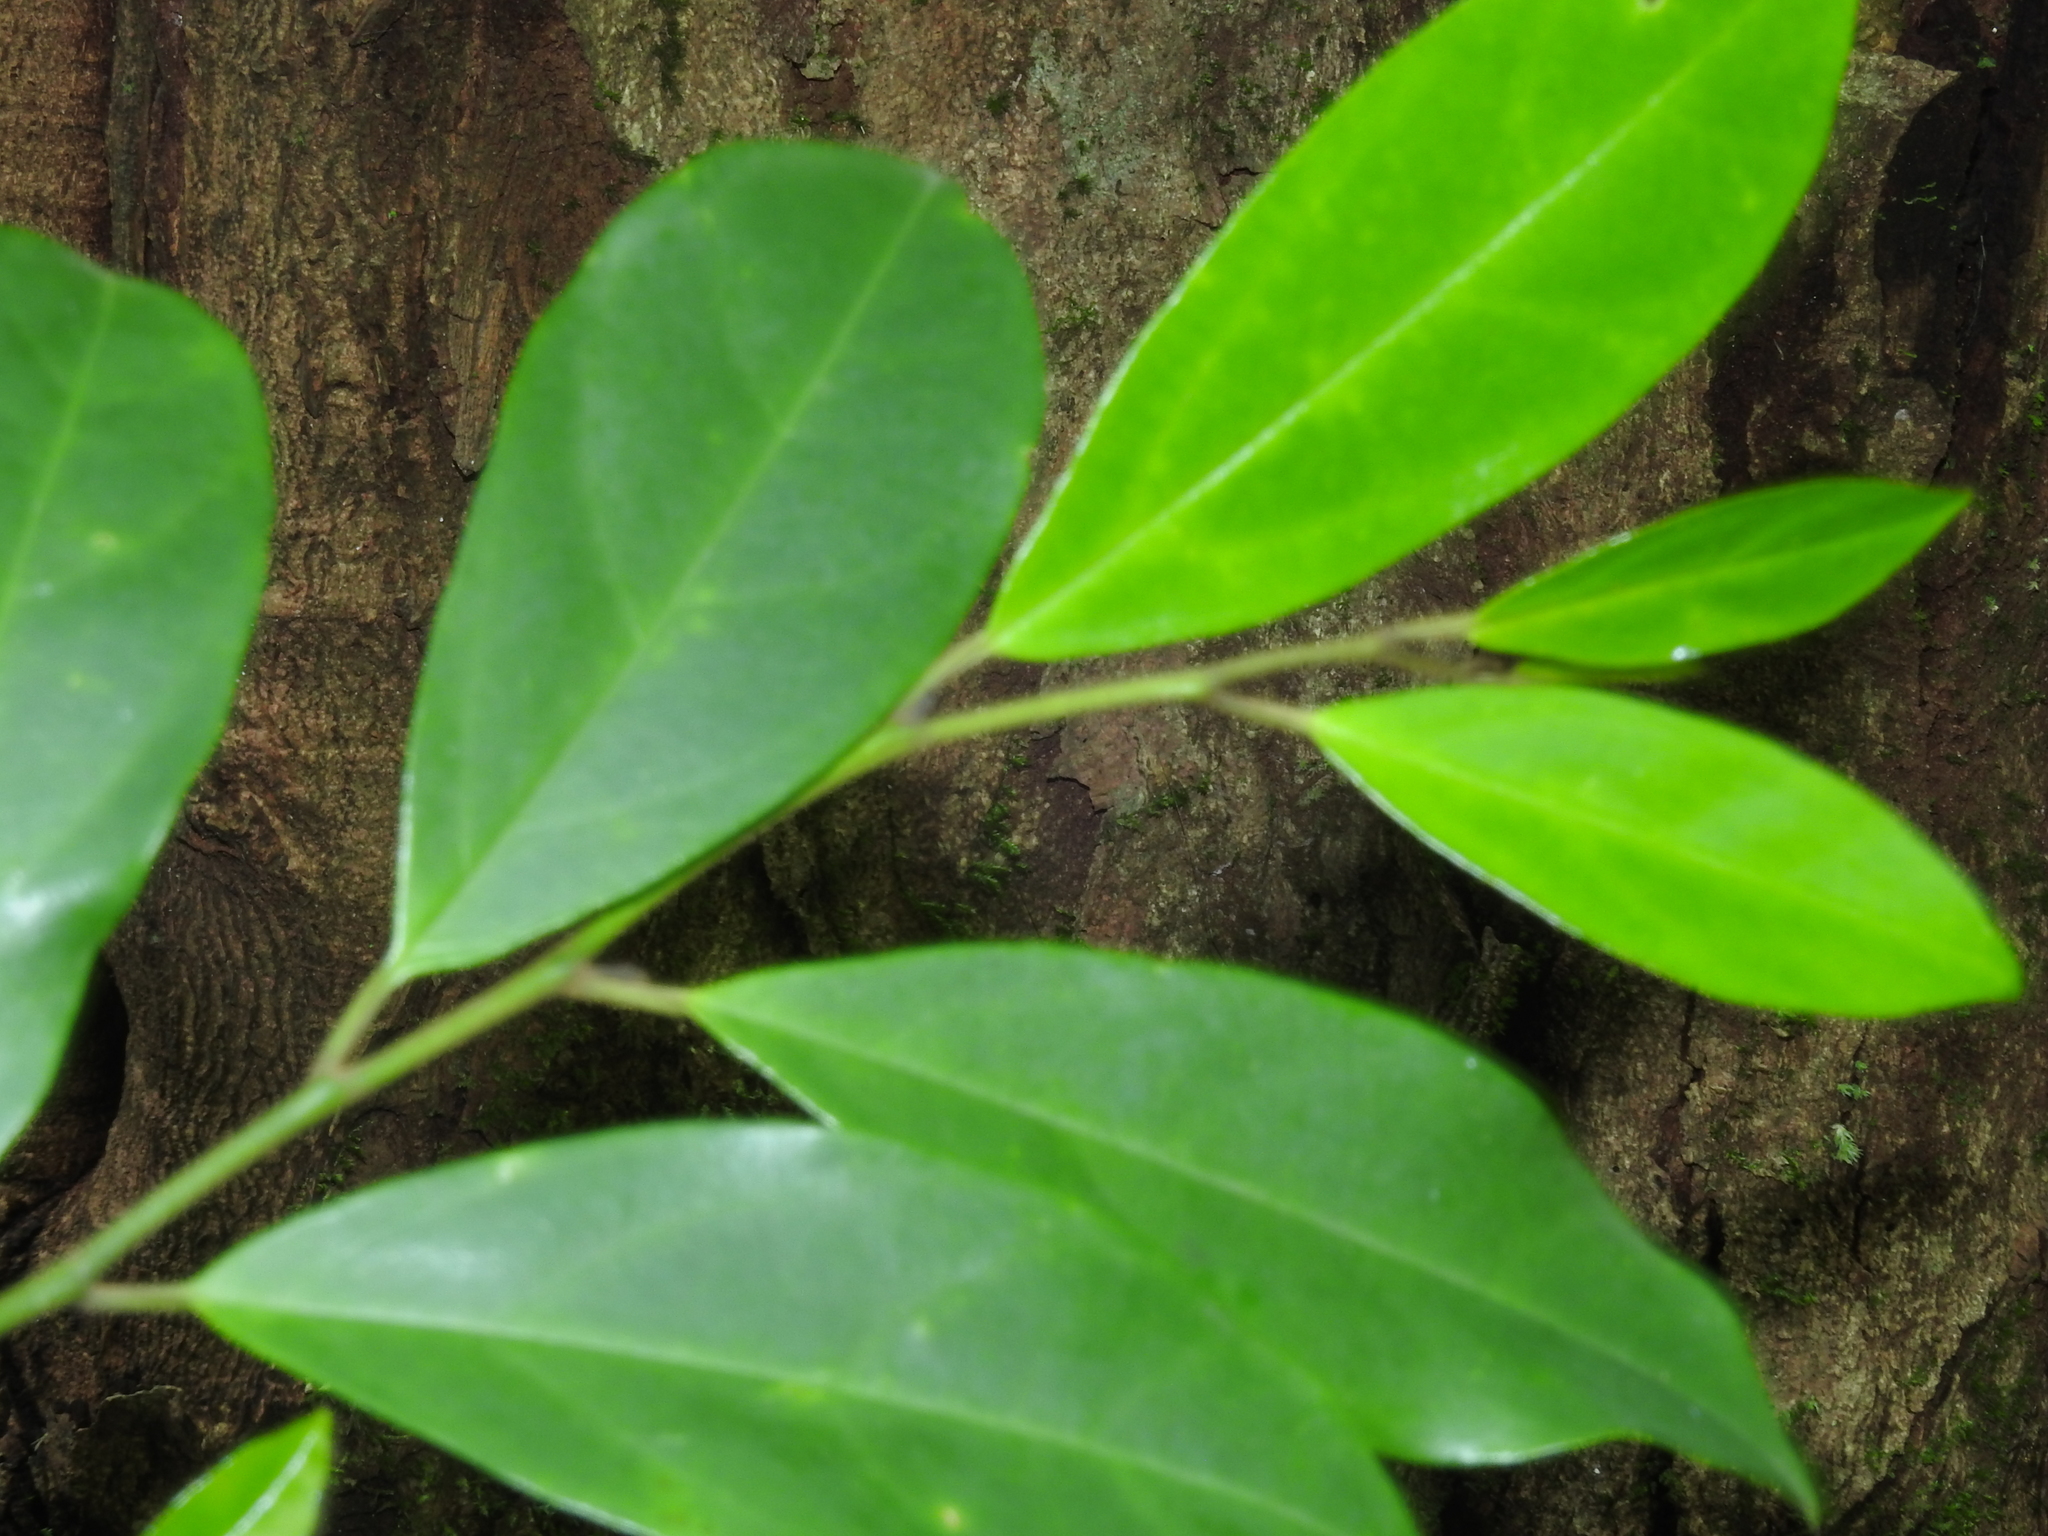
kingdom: Plantae
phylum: Tracheophyta
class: Magnoliopsida
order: Cardiopteridales
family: Stemonuraceae
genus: Gomphandra
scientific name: Gomphandra coriacea
